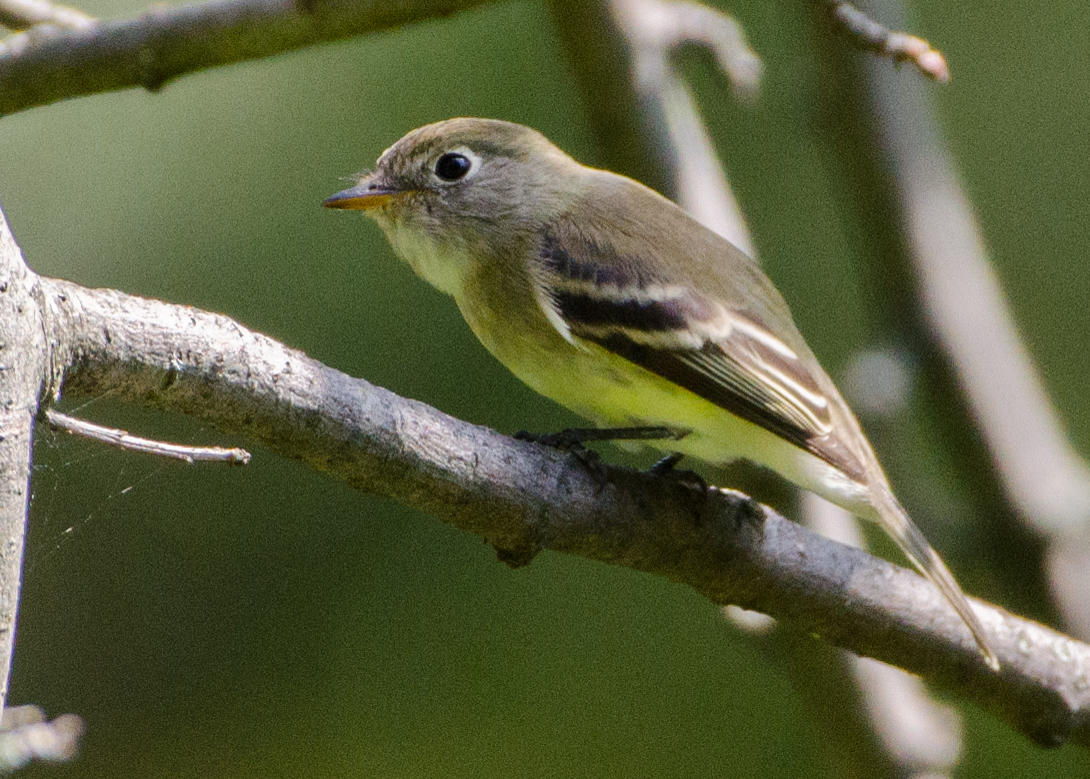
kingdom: Animalia
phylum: Chordata
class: Aves
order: Passeriformes
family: Tyrannidae
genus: Empidonax
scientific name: Empidonax minimus
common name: Least flycatcher
